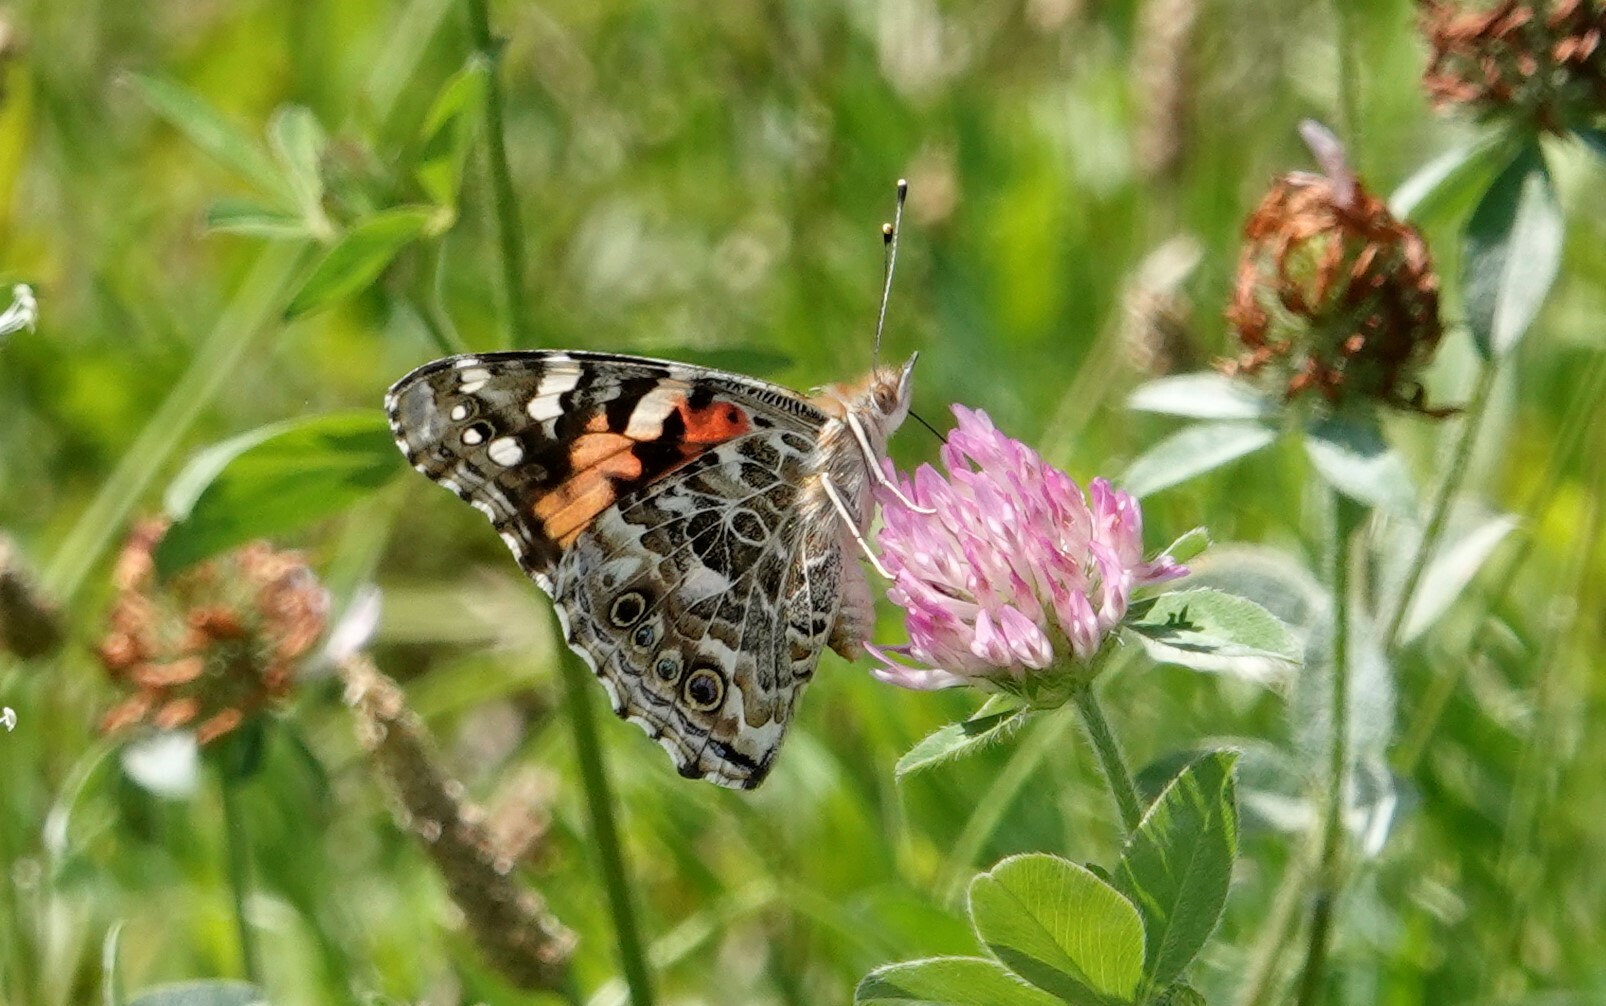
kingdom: Animalia
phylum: Arthropoda
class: Insecta
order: Lepidoptera
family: Nymphalidae
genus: Vanessa
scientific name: Vanessa cardui
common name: Painted lady
